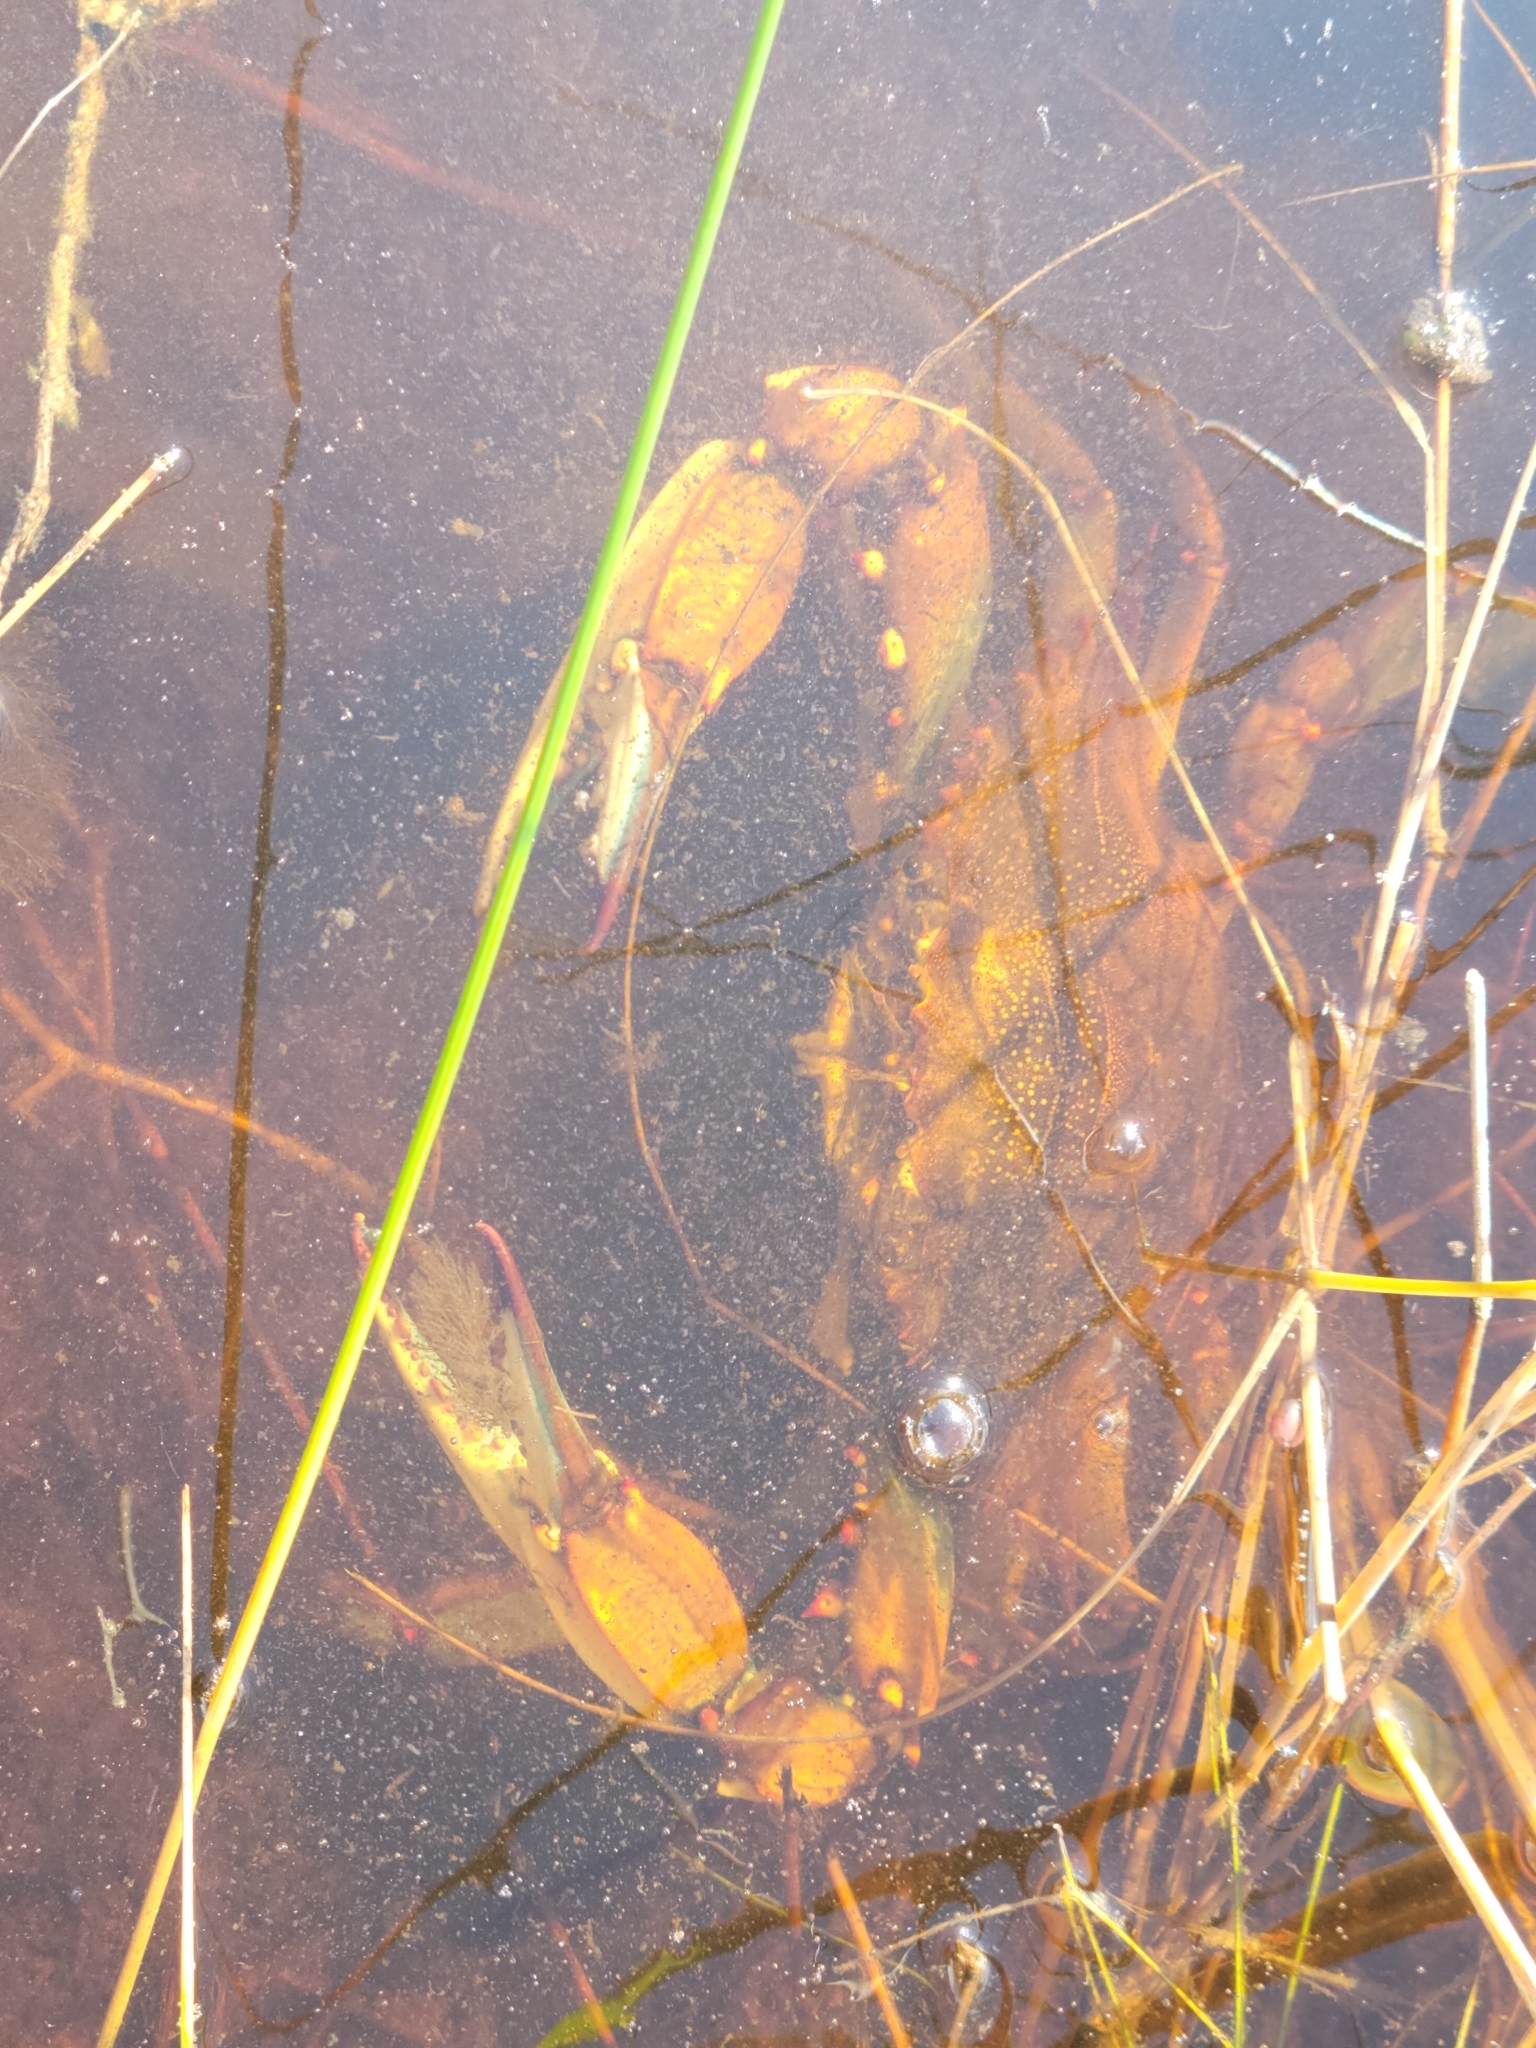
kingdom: Animalia
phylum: Arthropoda
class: Malacostraca
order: Decapoda
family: Portunidae
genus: Callinectes
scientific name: Callinectes sapidus
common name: Blue crab
